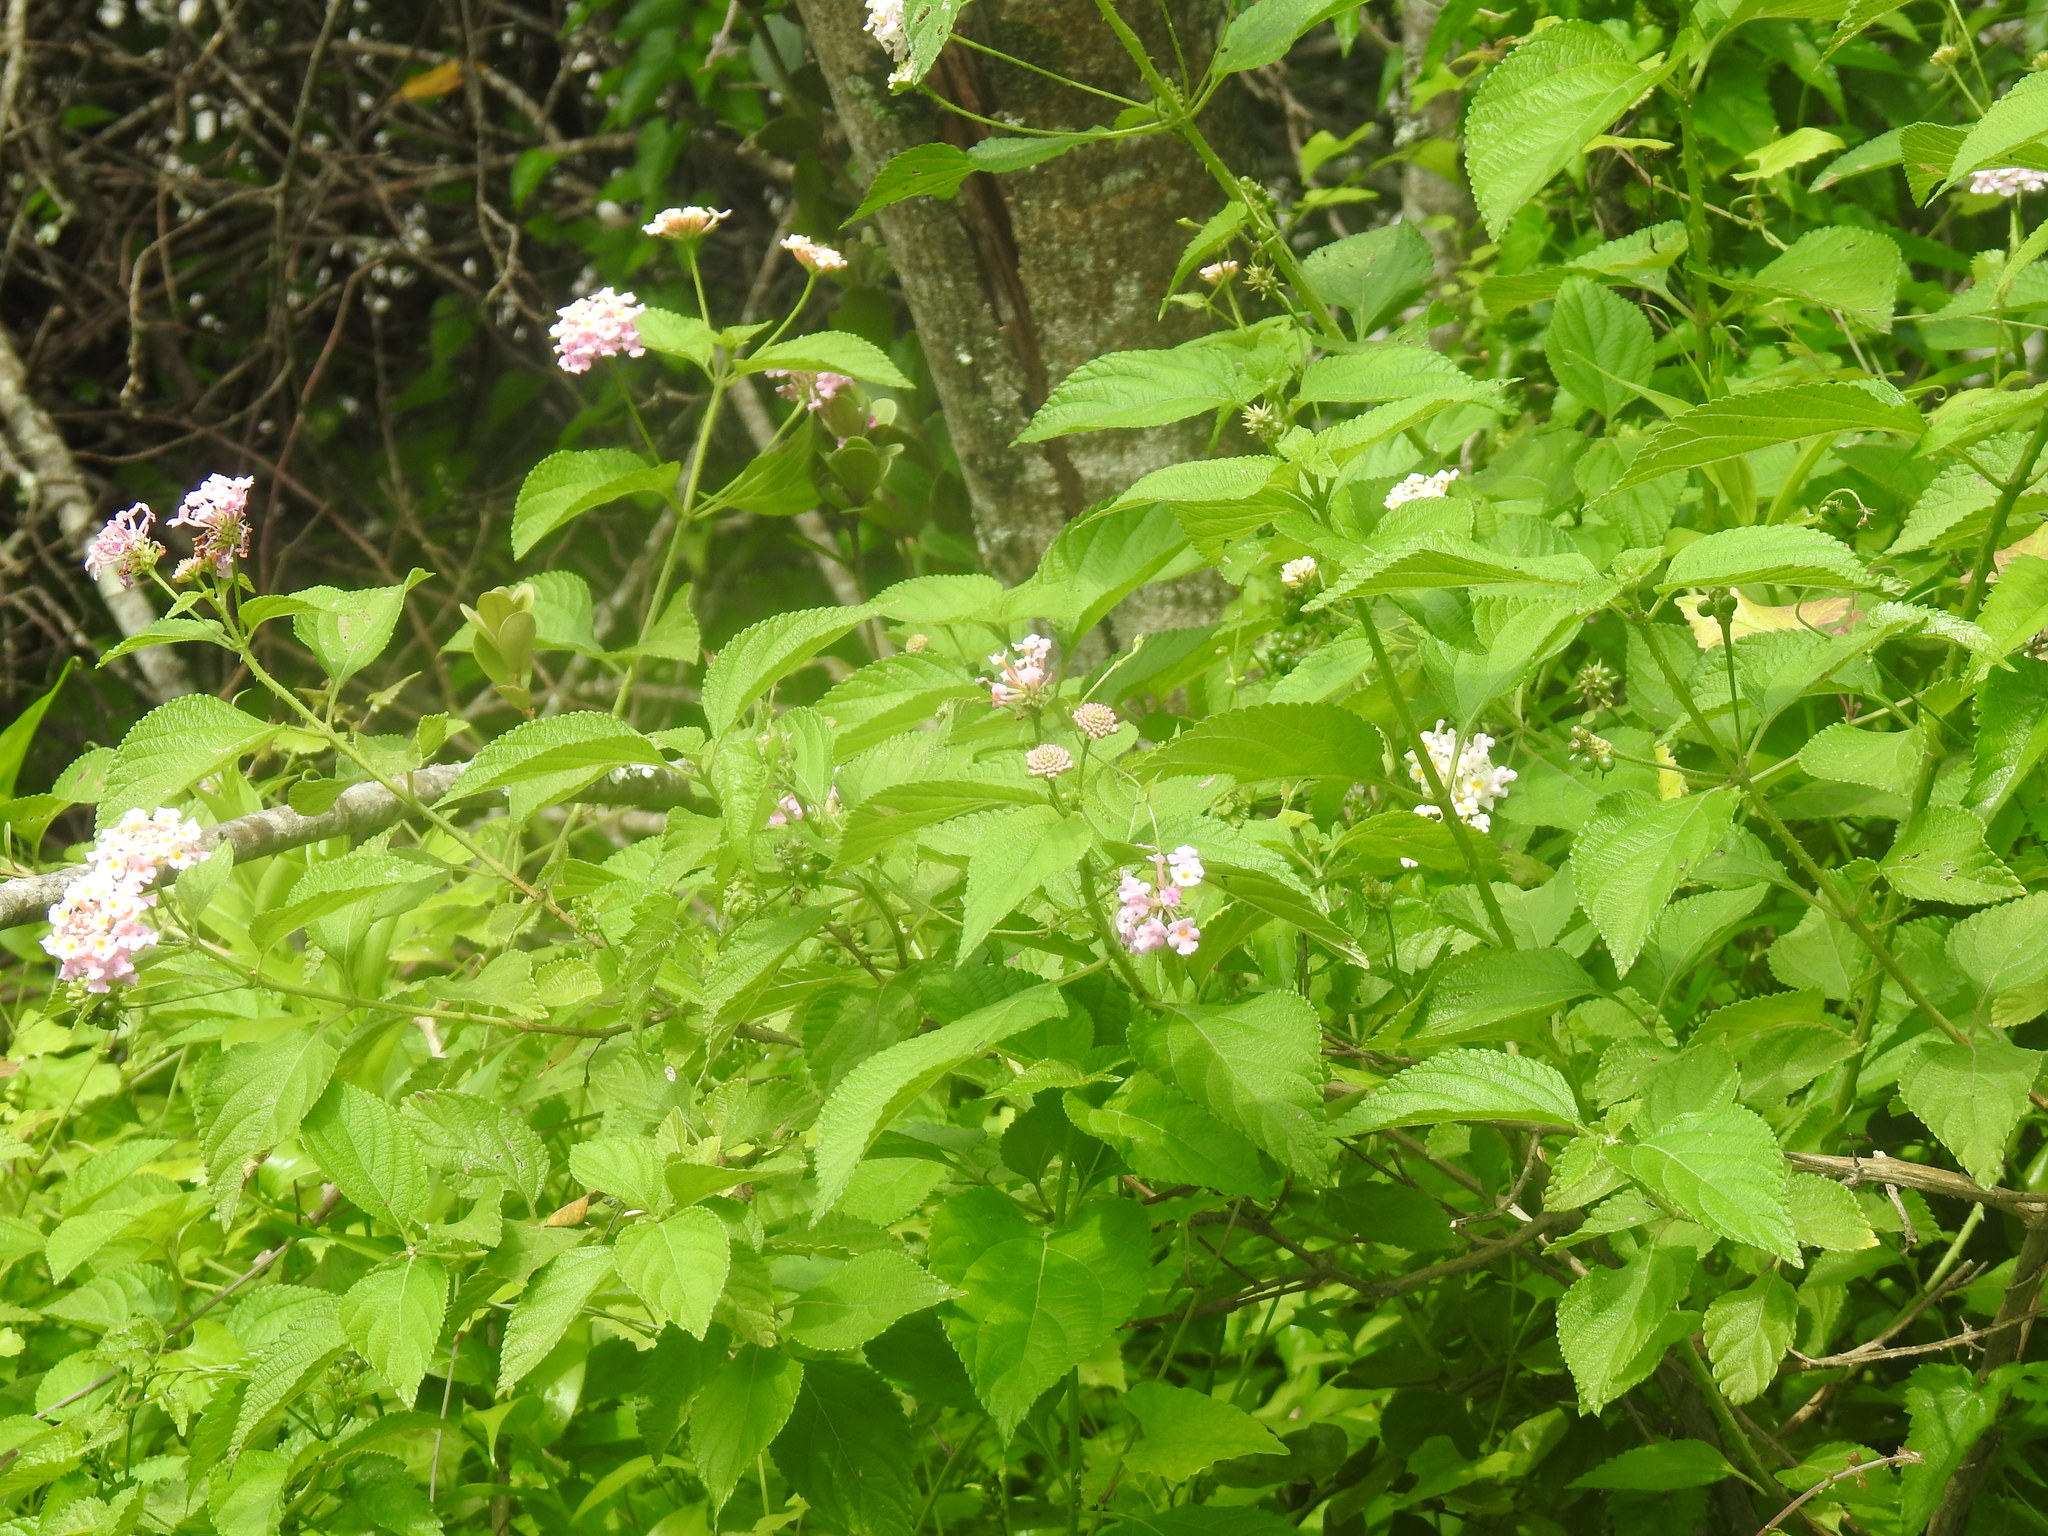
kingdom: Plantae
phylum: Tracheophyta
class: Magnoliopsida
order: Lamiales
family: Verbenaceae
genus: Lantana
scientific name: Lantana camara
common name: Lantana
